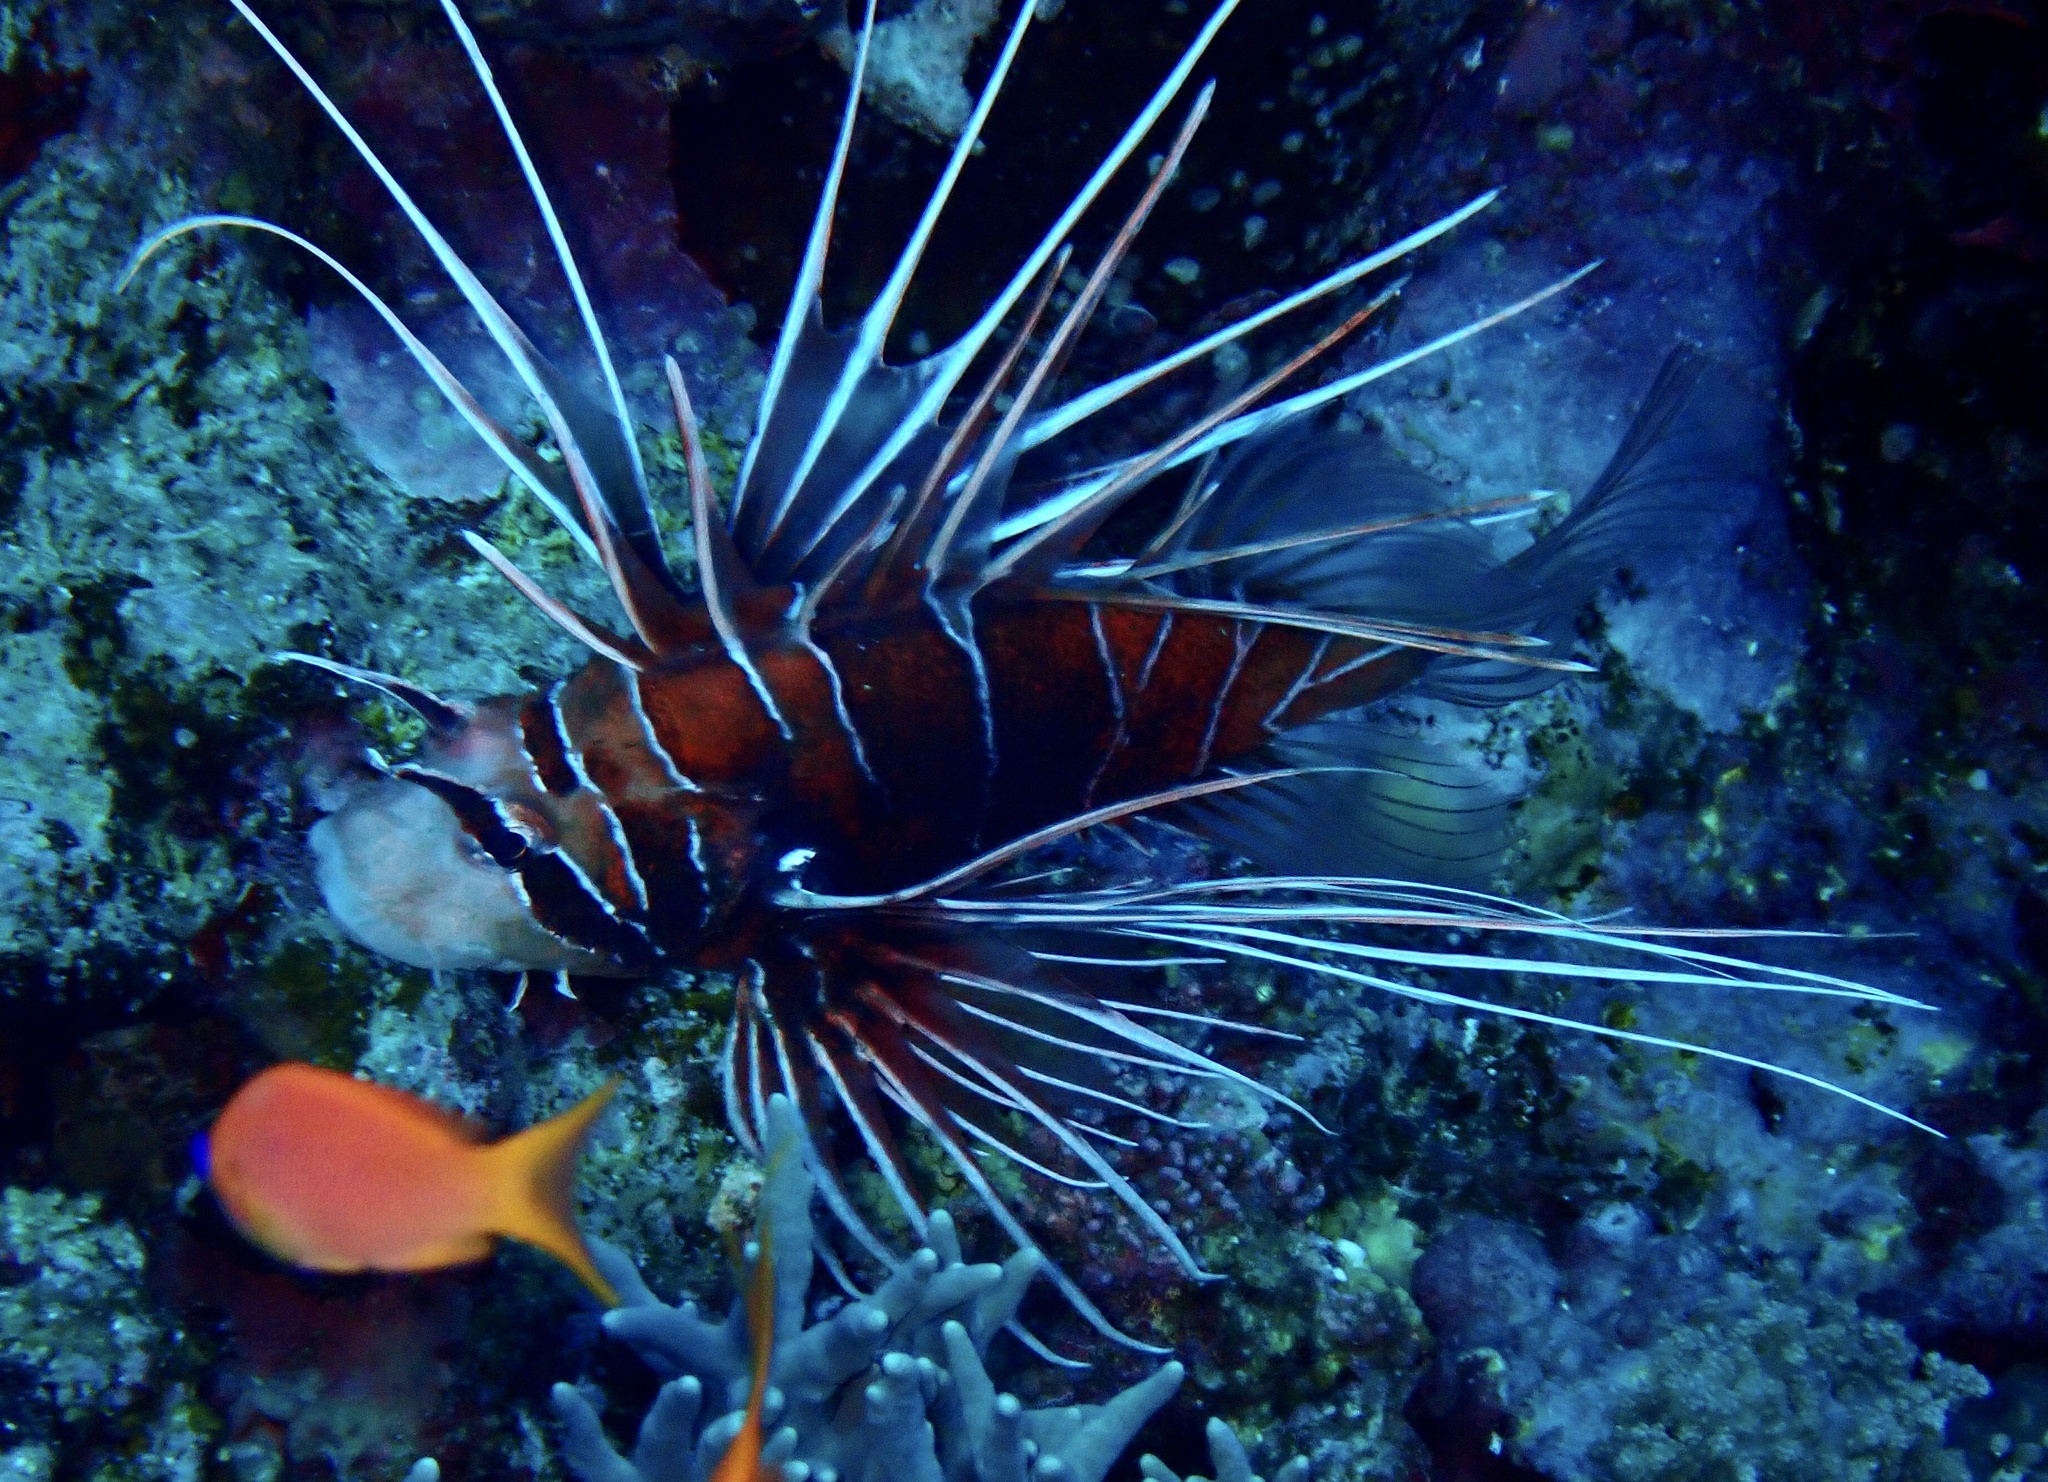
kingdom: Animalia
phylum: Chordata
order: Scorpaeniformes
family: Scorpaenidae
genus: Pterois
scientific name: Pterois cincta
